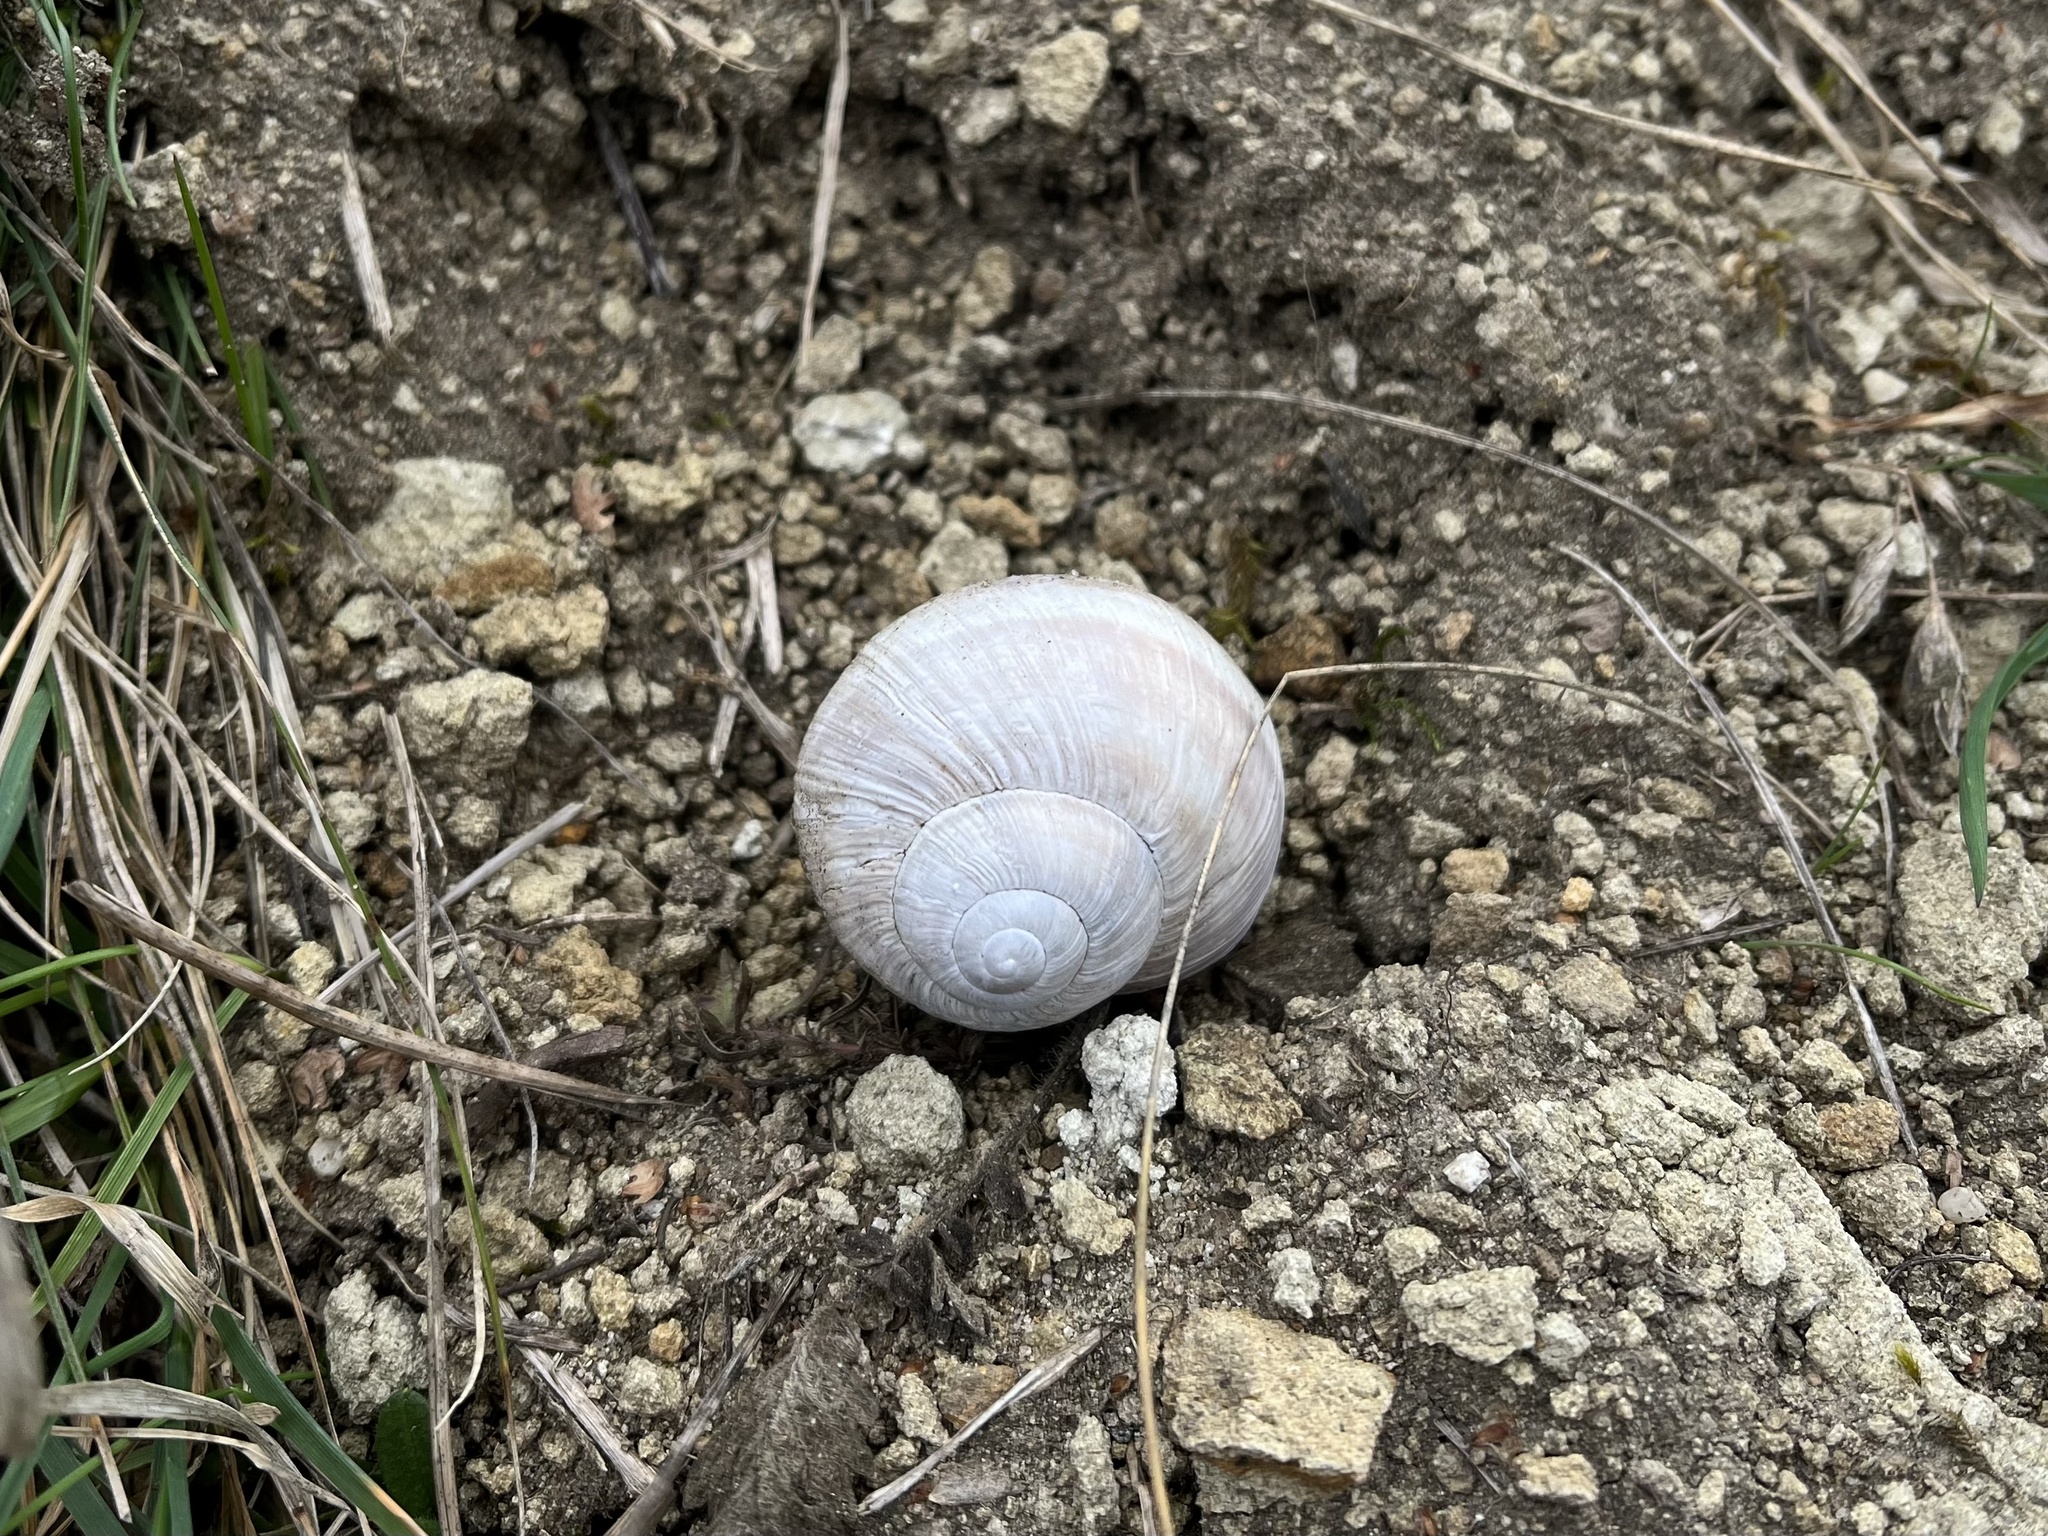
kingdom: Animalia
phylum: Mollusca
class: Gastropoda
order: Stylommatophora
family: Helicidae
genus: Helix
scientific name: Helix pomatia
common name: Roman snail
